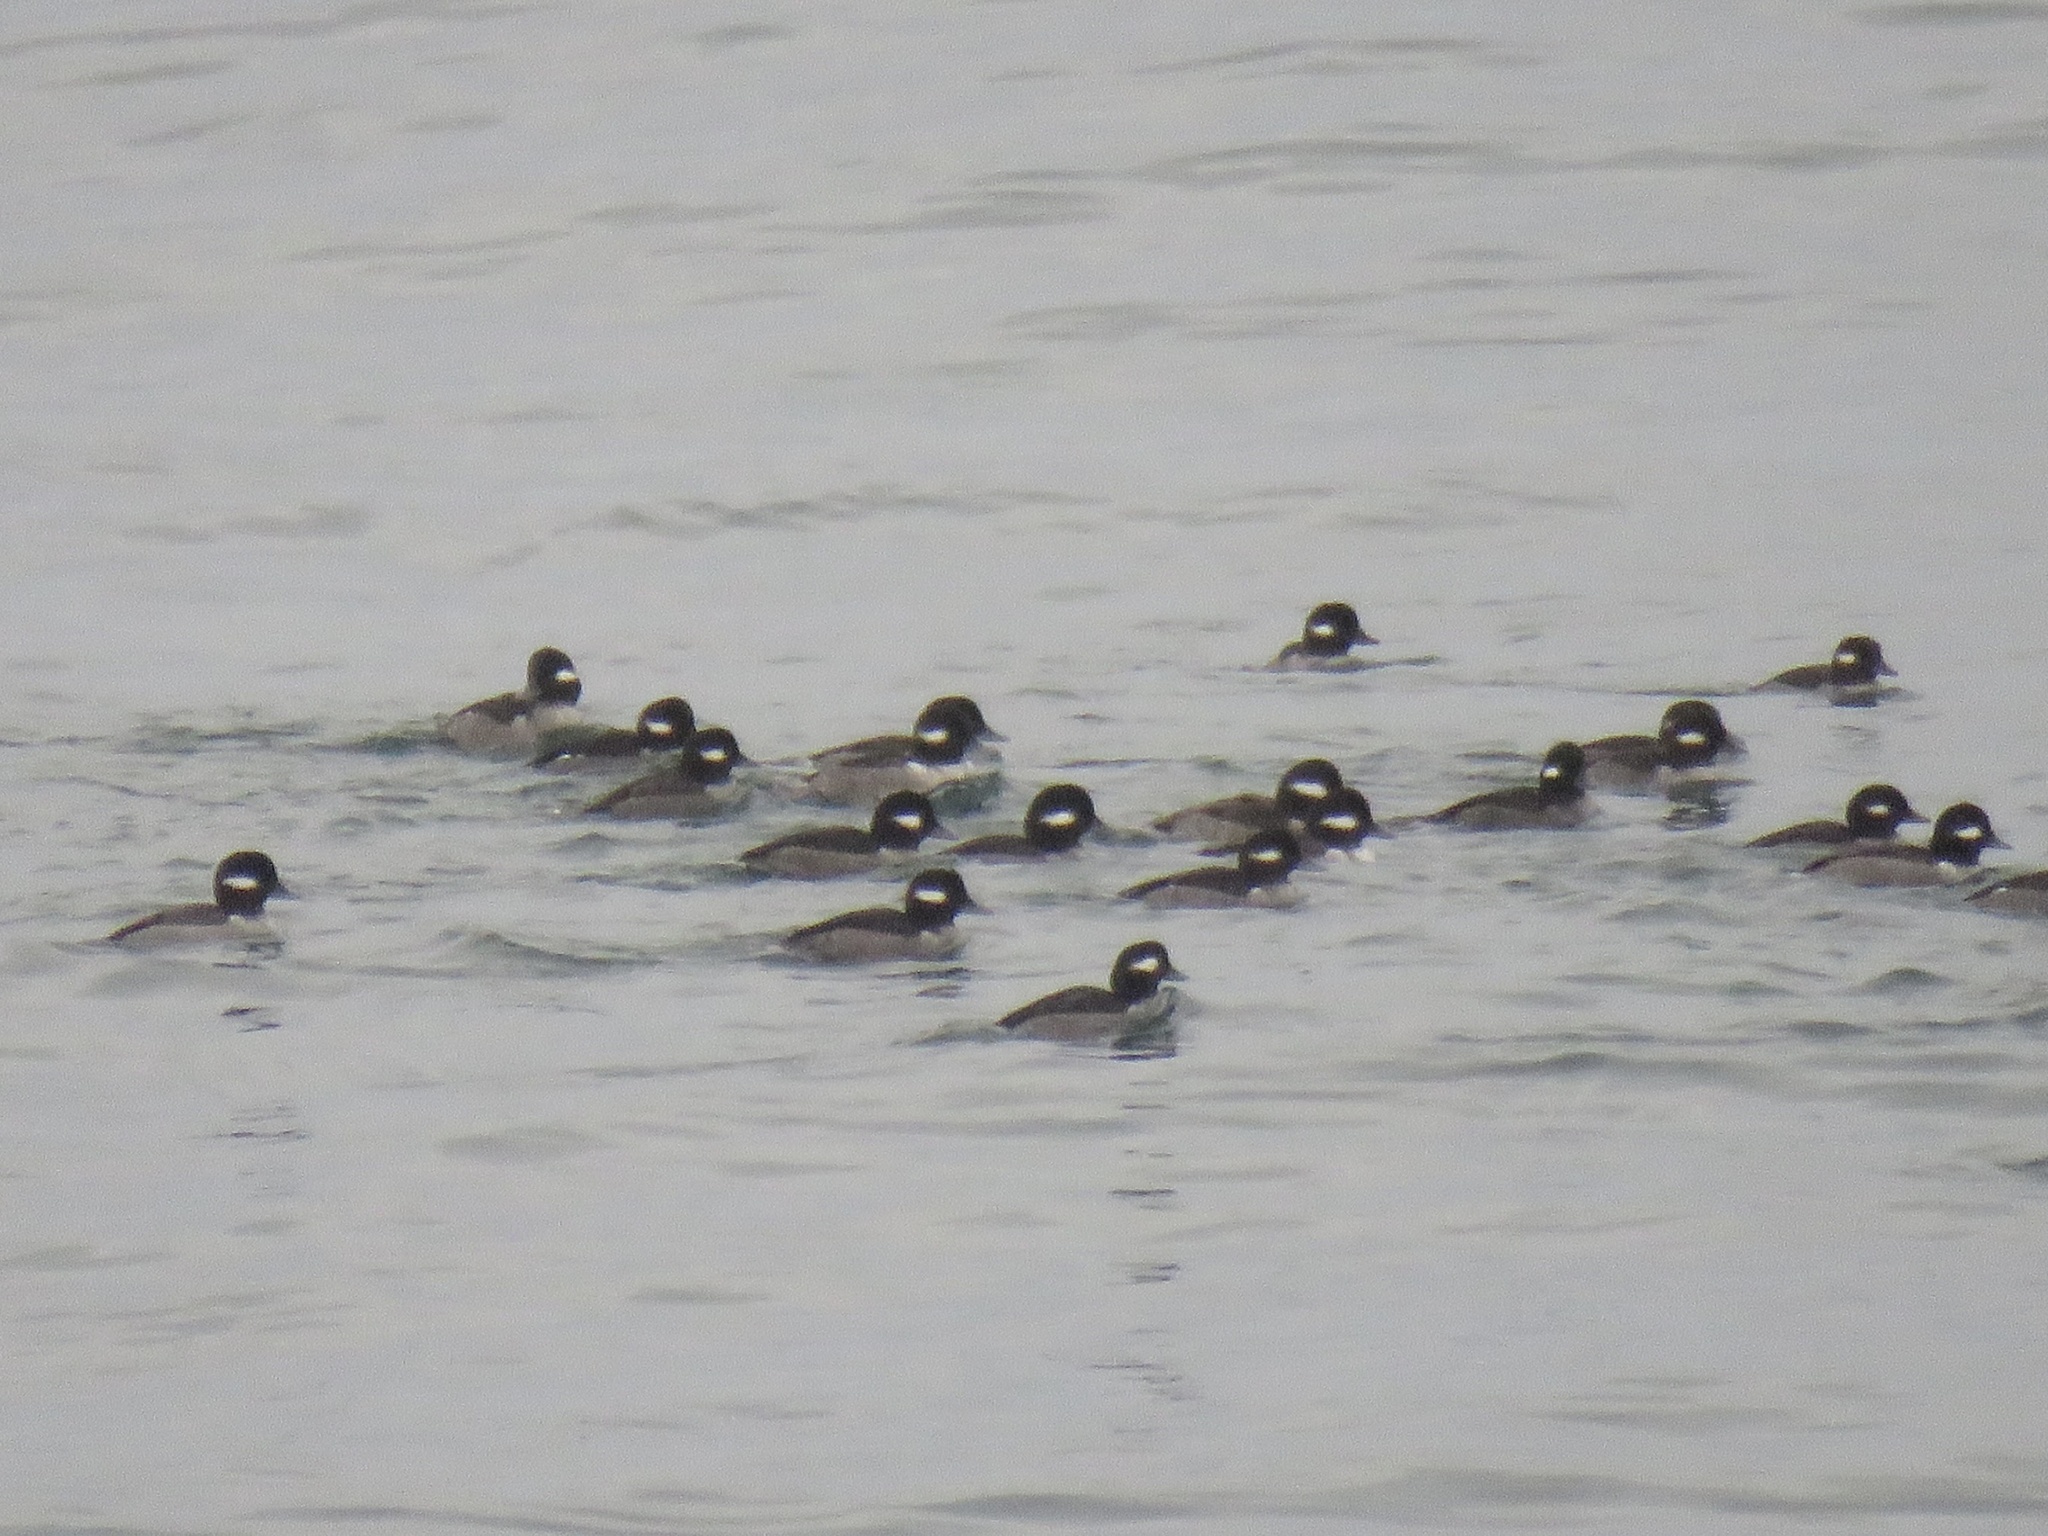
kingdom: Animalia
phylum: Chordata
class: Aves
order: Anseriformes
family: Anatidae
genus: Bucephala
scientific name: Bucephala albeola
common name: Bufflehead
